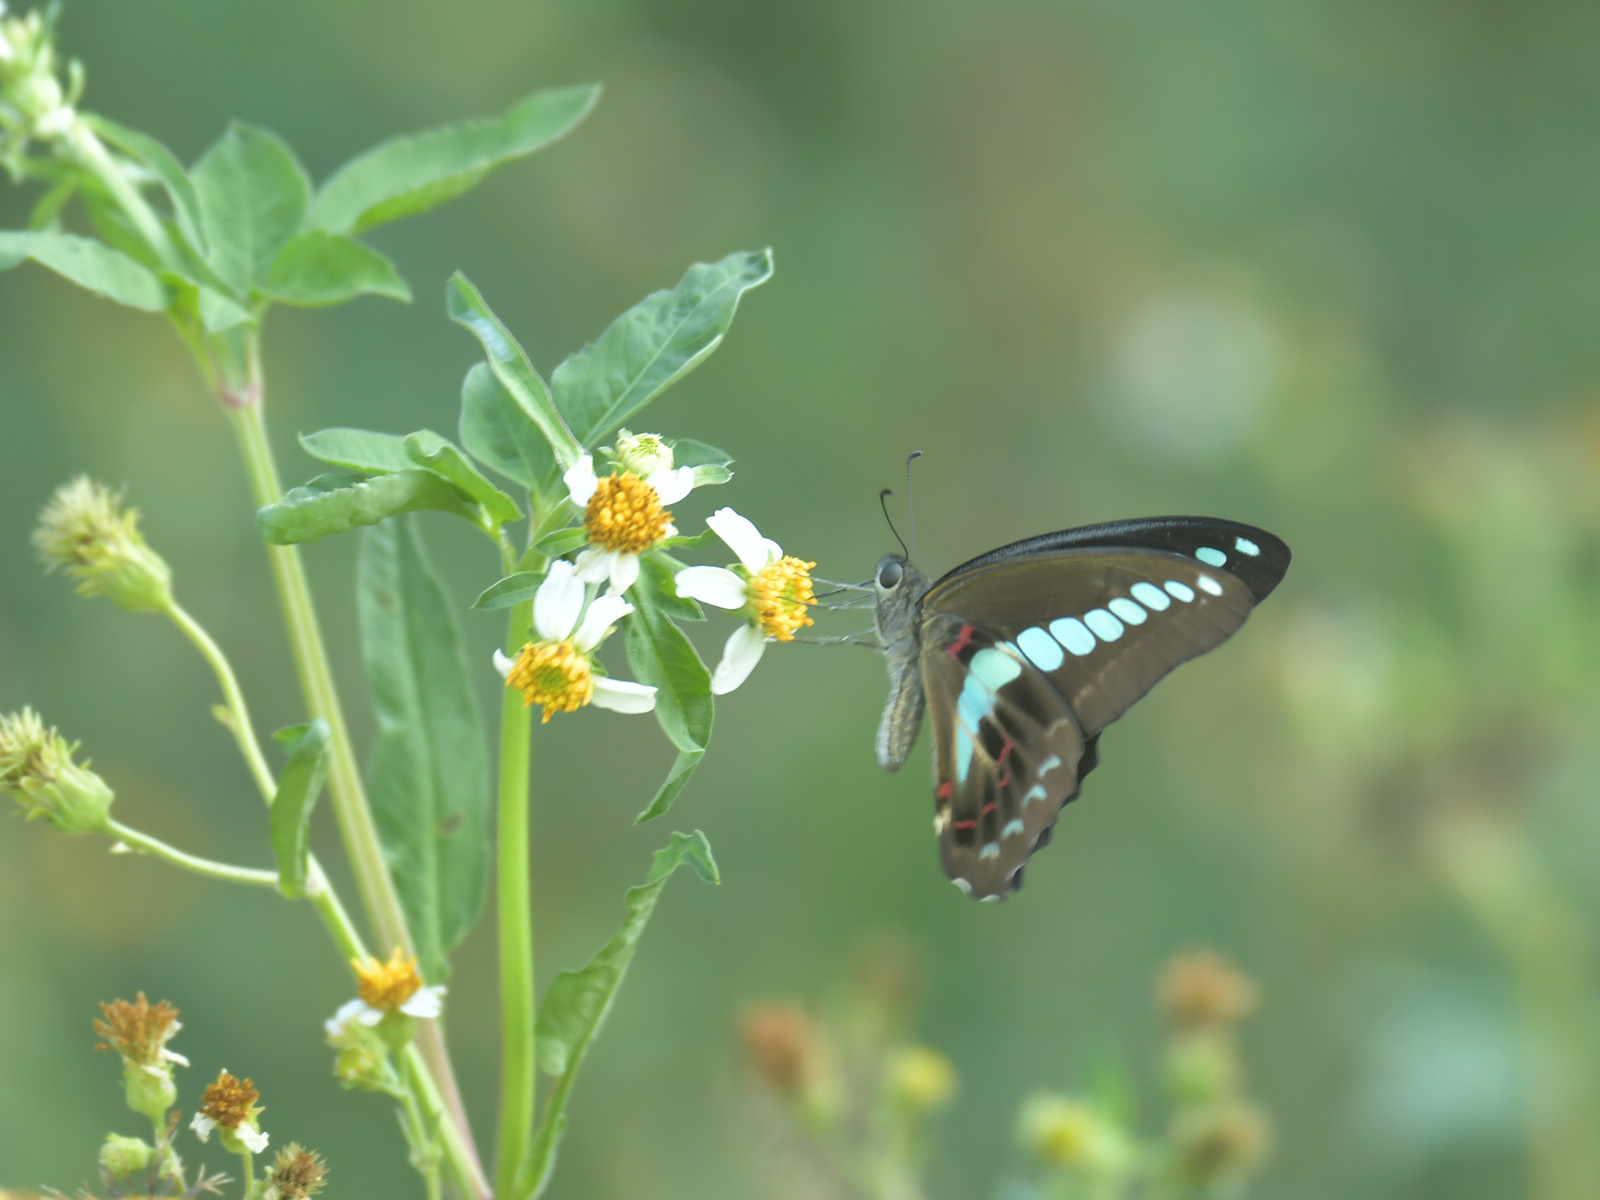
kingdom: Fungi
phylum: Ascomycota
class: Sordariomycetes
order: Microascales
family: Microascaceae
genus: Graphium
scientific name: Graphium sarpedon
